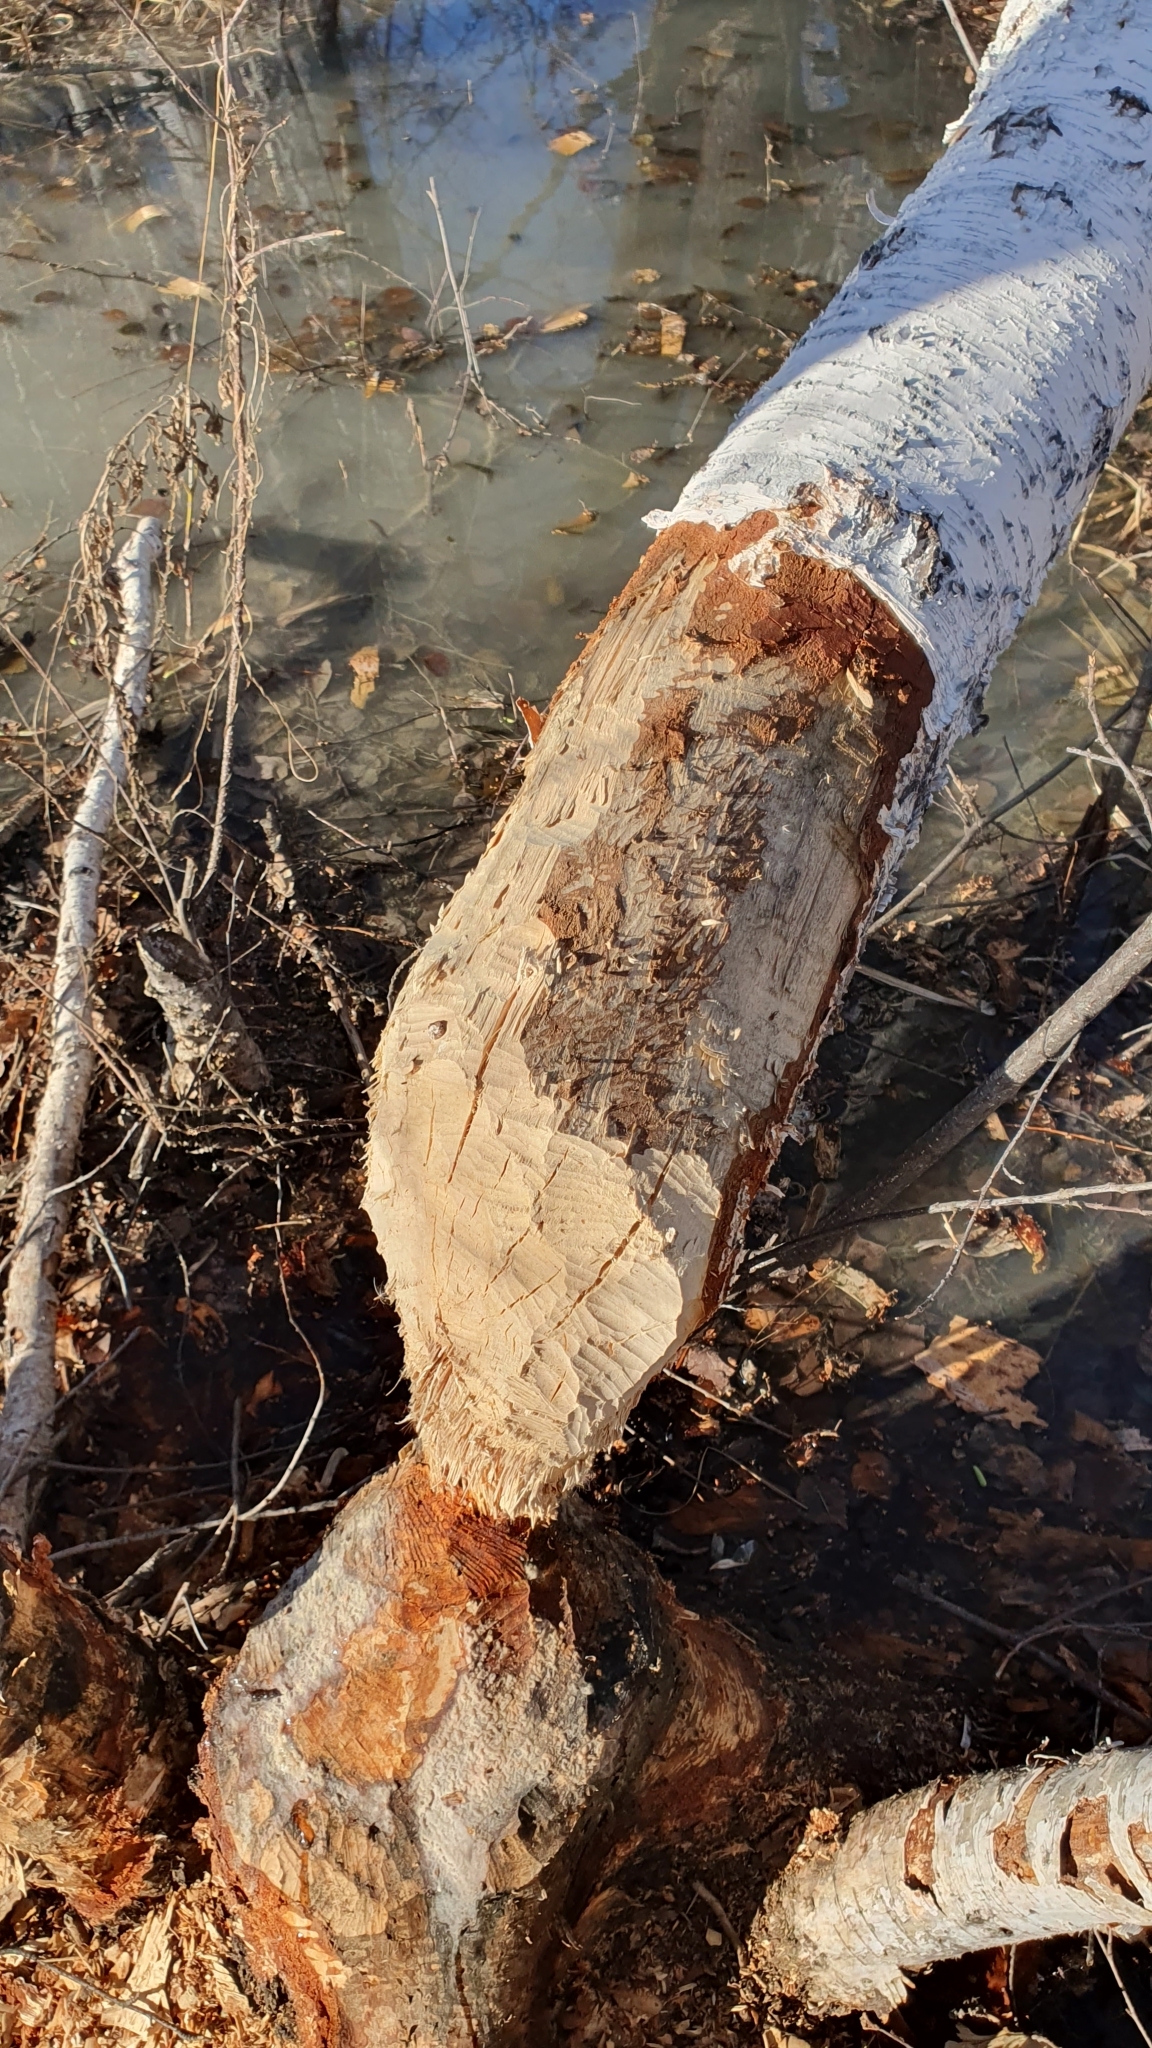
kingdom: Animalia
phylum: Chordata
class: Mammalia
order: Rodentia
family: Castoridae
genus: Castor
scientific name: Castor fiber
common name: Eurasian beaver
